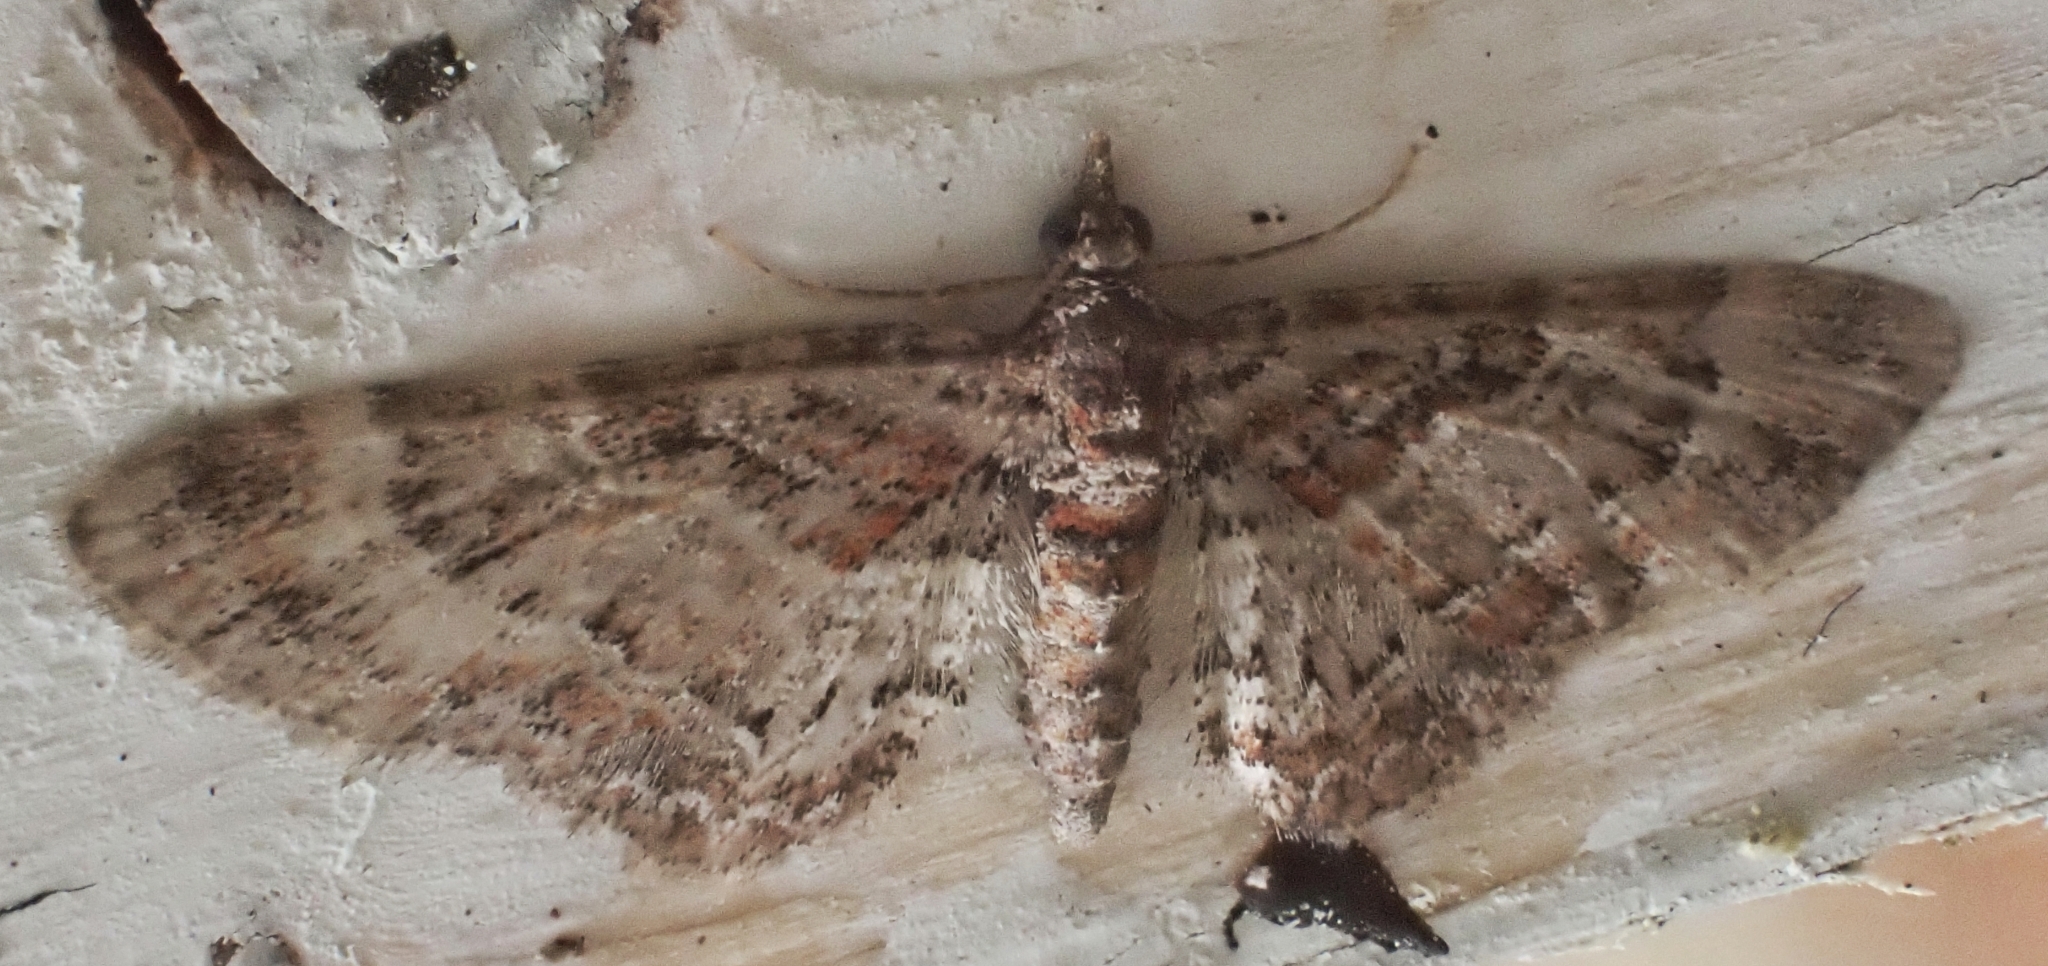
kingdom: Animalia
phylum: Arthropoda
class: Insecta
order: Lepidoptera
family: Geometridae
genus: Gymnoscelis
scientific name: Gymnoscelis rufifasciata
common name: Double-striped pug
